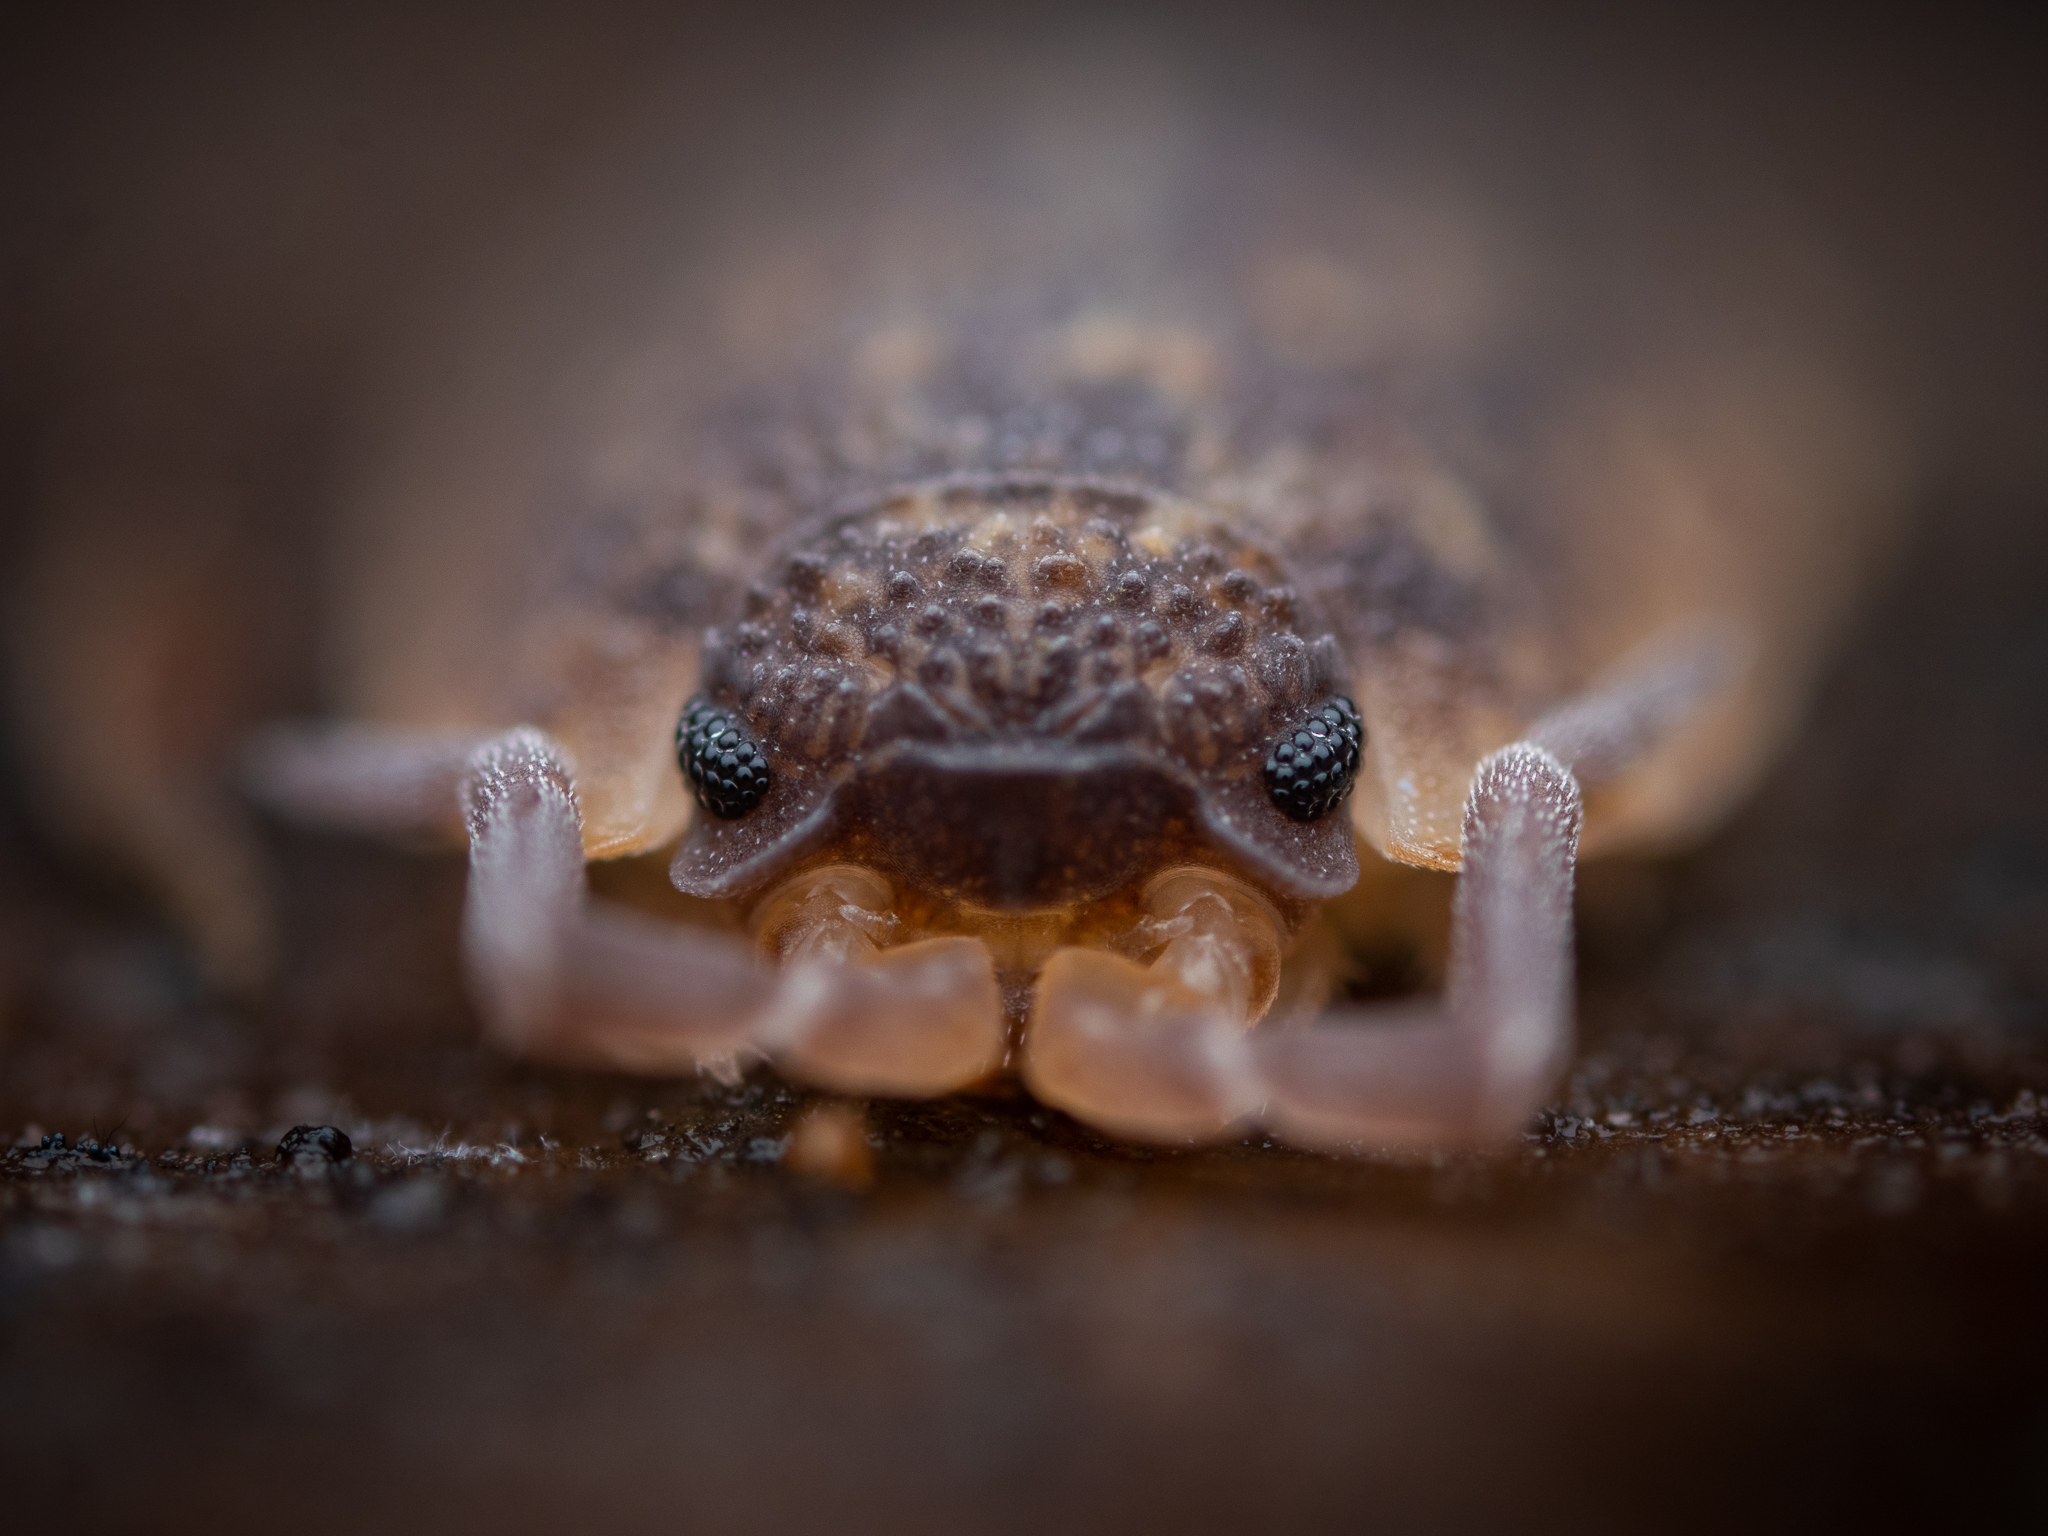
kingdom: Animalia
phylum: Arthropoda
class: Malacostraca
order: Isopoda
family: Porcellionidae
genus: Porcellio
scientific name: Porcellio scaber
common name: Common rough woodlouse
